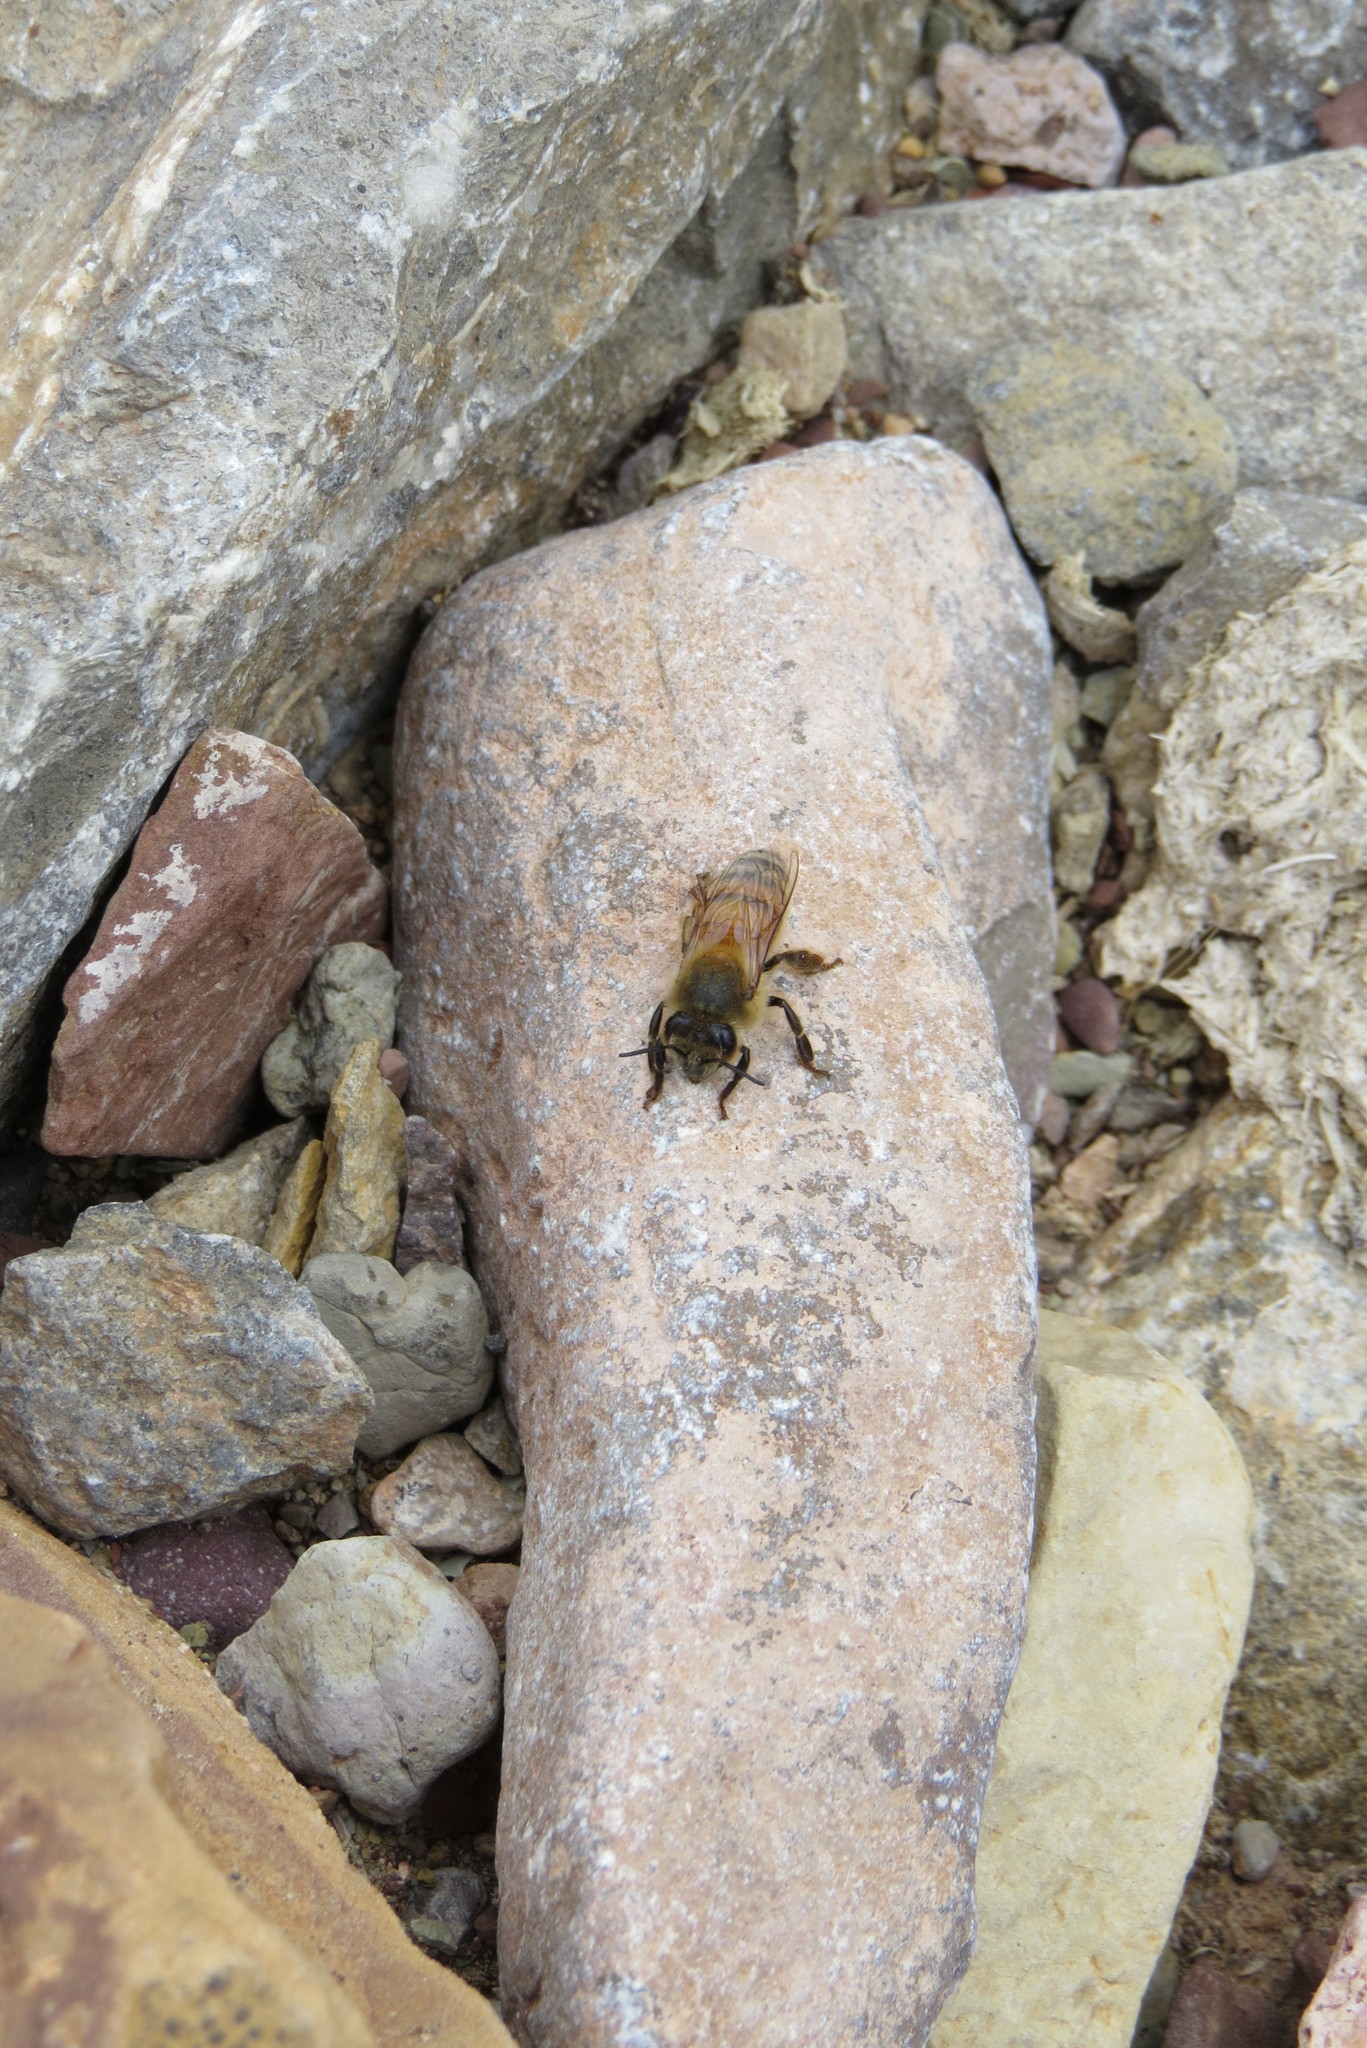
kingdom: Animalia
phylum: Arthropoda
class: Insecta
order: Hymenoptera
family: Apidae
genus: Apis
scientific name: Apis mellifera
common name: Honey bee
